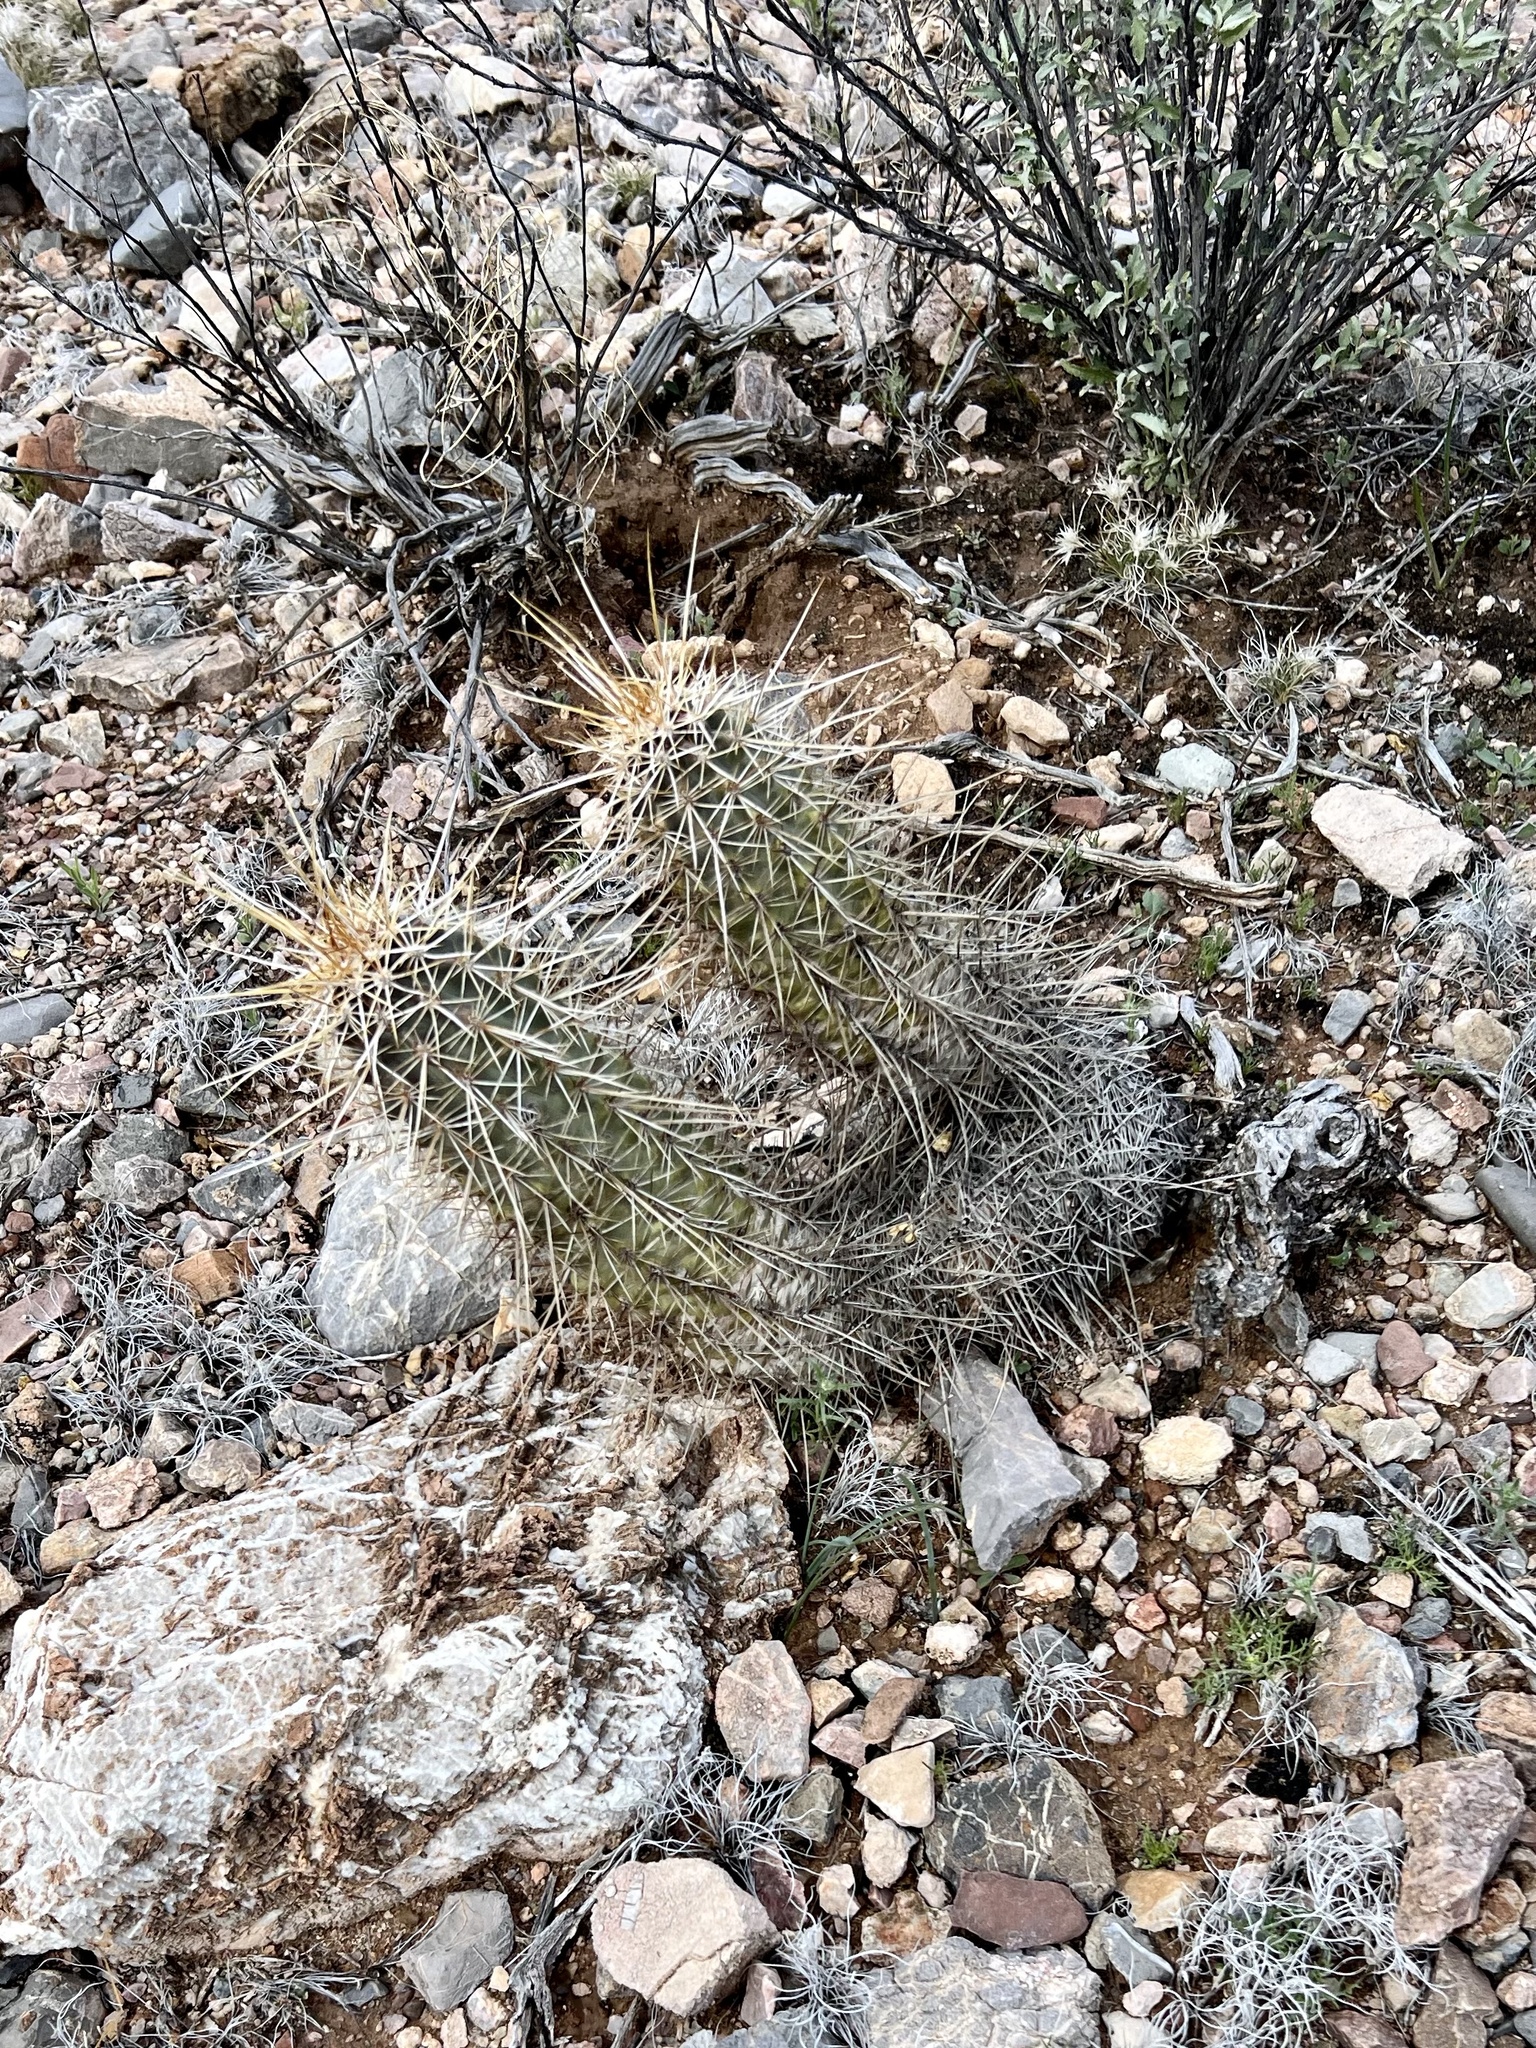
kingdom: Plantae
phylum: Tracheophyta
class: Magnoliopsida
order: Caryophyllales
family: Cactaceae
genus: Echinocereus
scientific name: Echinocereus fasciculatus
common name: Bundle hedgehog
